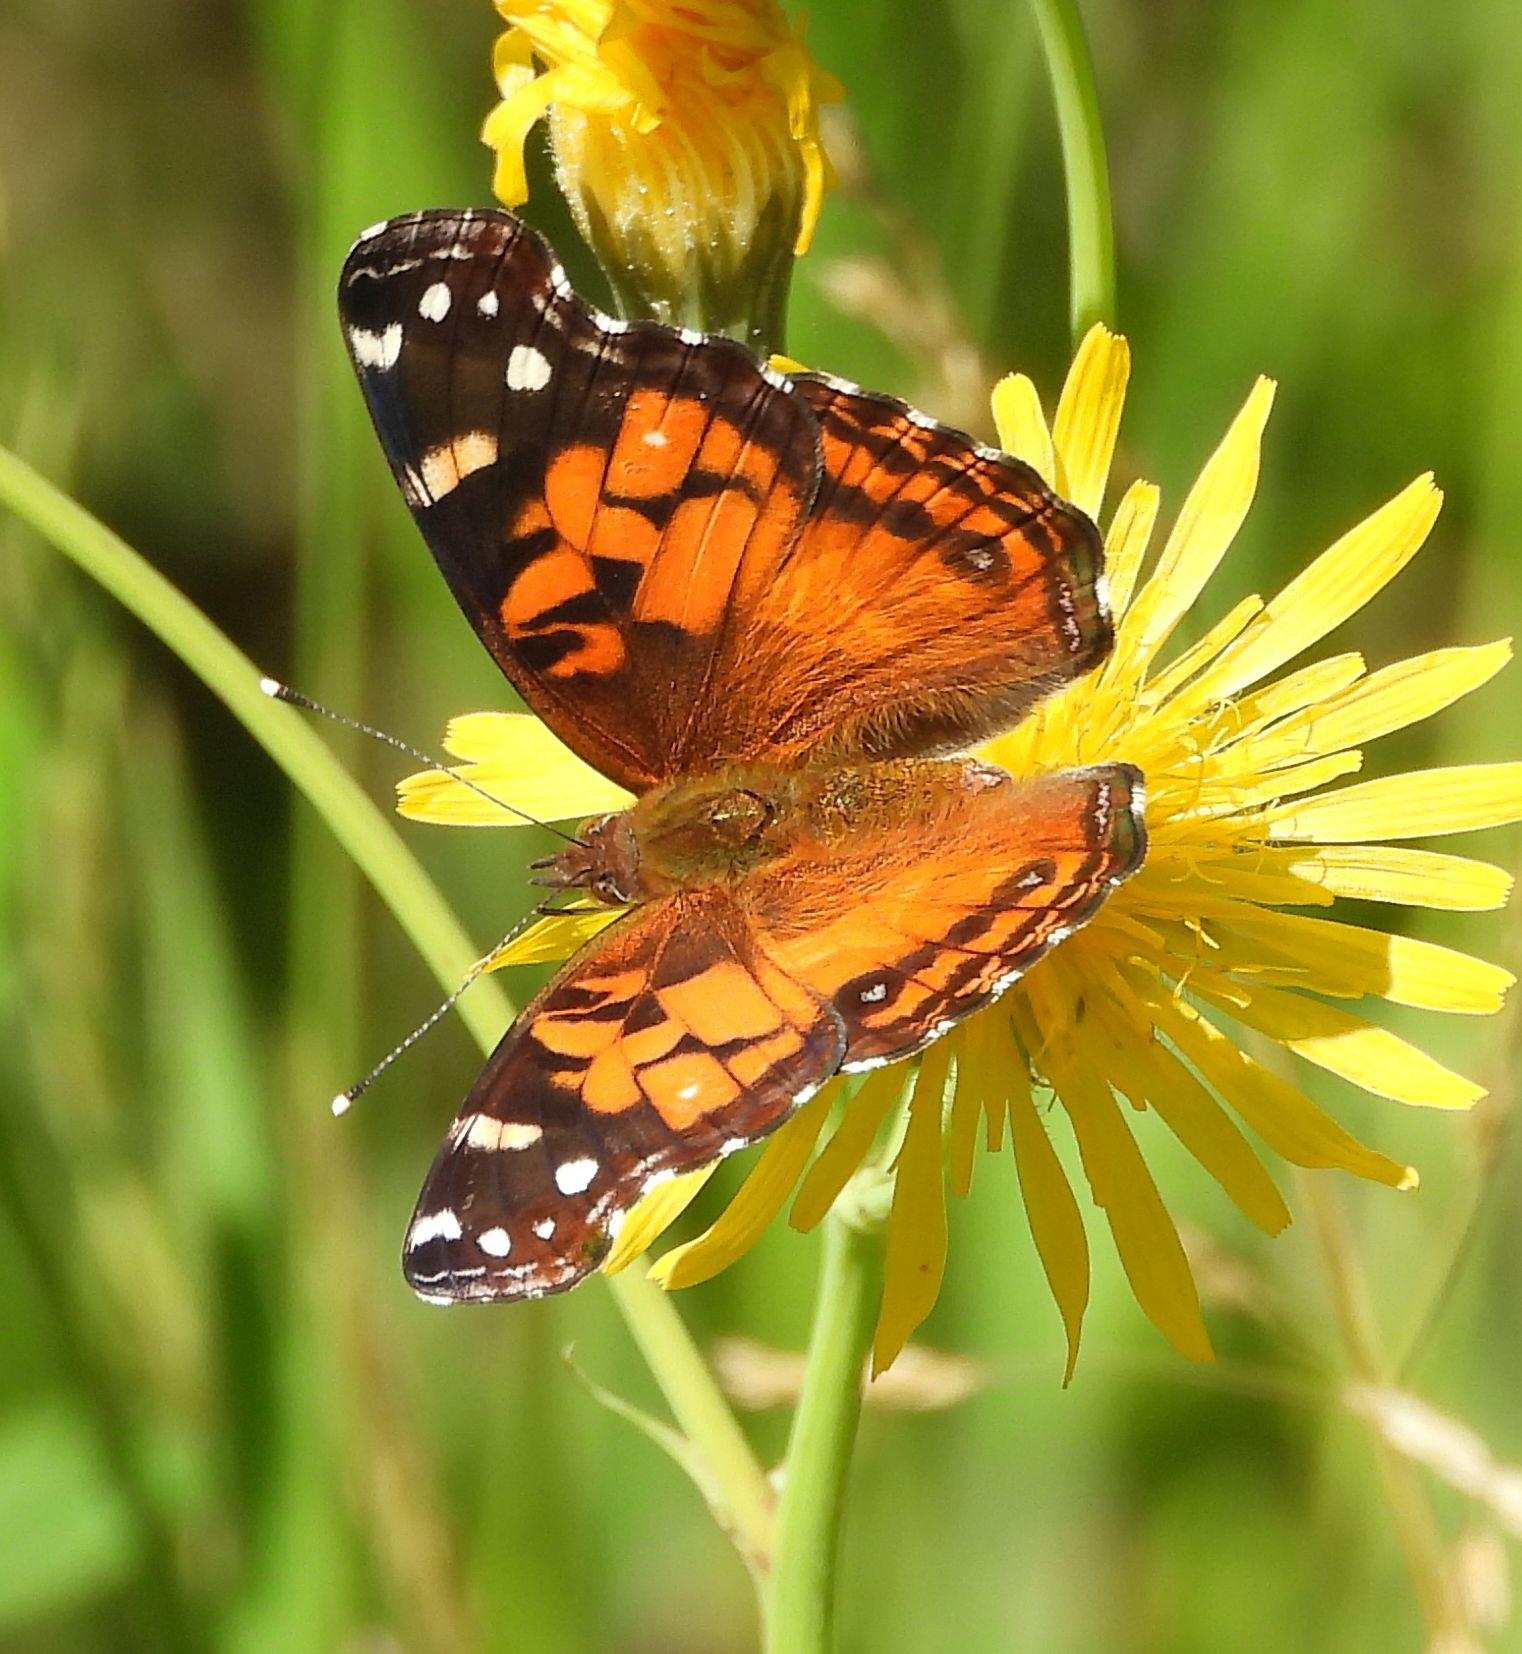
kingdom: Animalia
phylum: Arthropoda
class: Insecta
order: Lepidoptera
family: Nymphalidae
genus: Vanessa
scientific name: Vanessa virginiensis
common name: American lady
